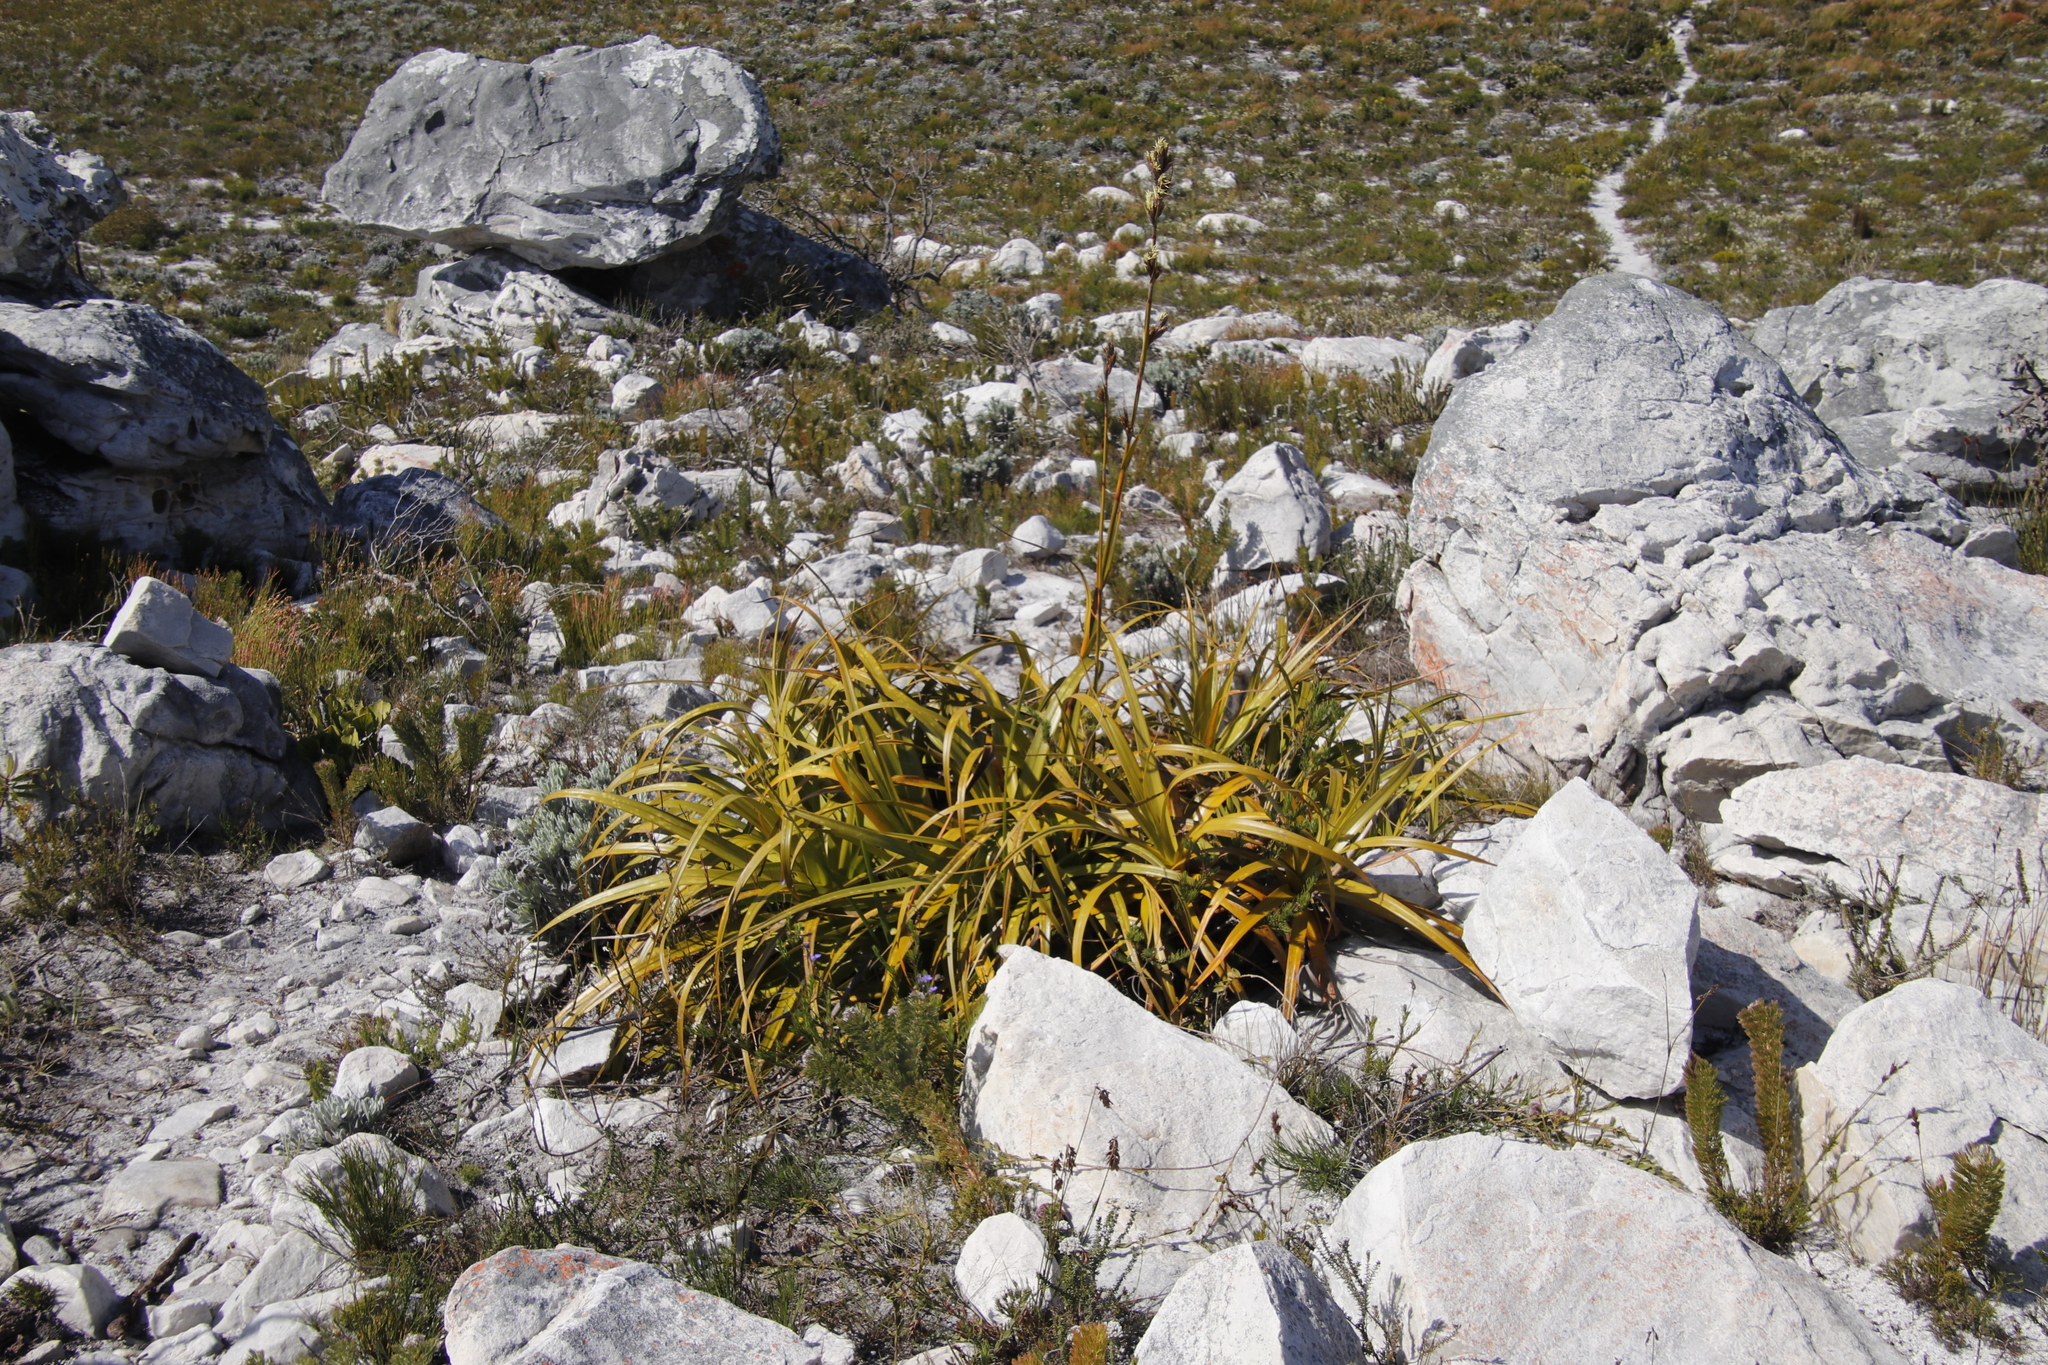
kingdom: Plantae
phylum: Tracheophyta
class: Liliopsida
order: Poales
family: Cyperaceae
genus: Tetraria
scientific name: Tetraria thermalis
